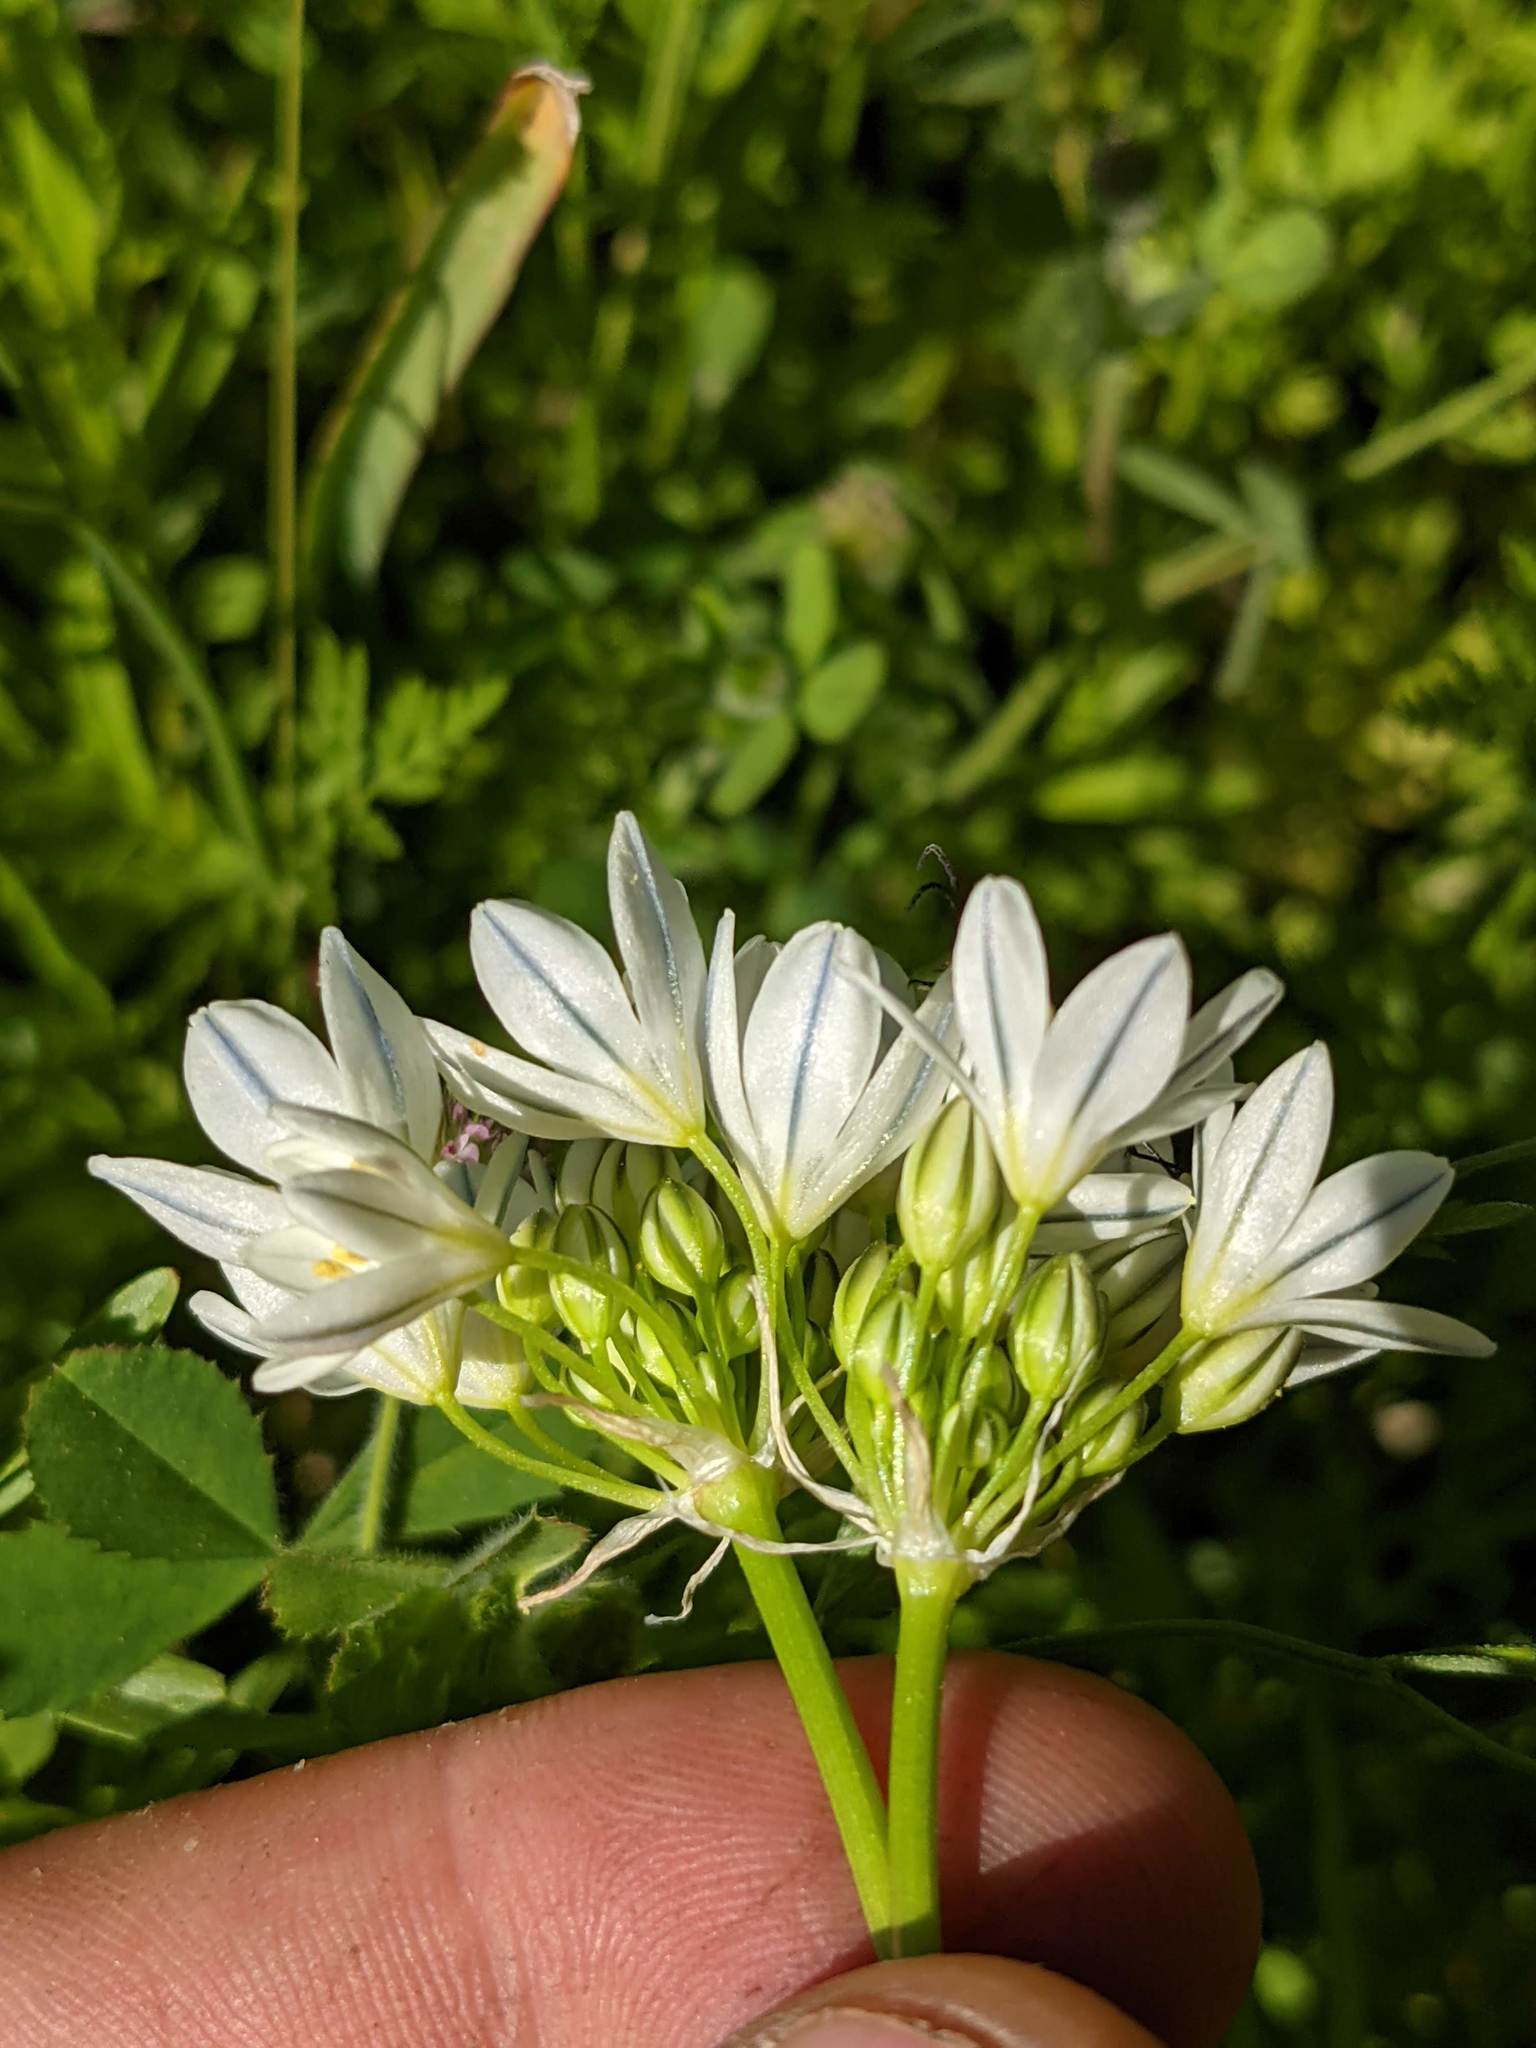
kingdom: Plantae
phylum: Tracheophyta
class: Liliopsida
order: Asparagales
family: Asparagaceae
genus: Triteleia
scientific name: Triteleia hyacinthina
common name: White brodiaea
